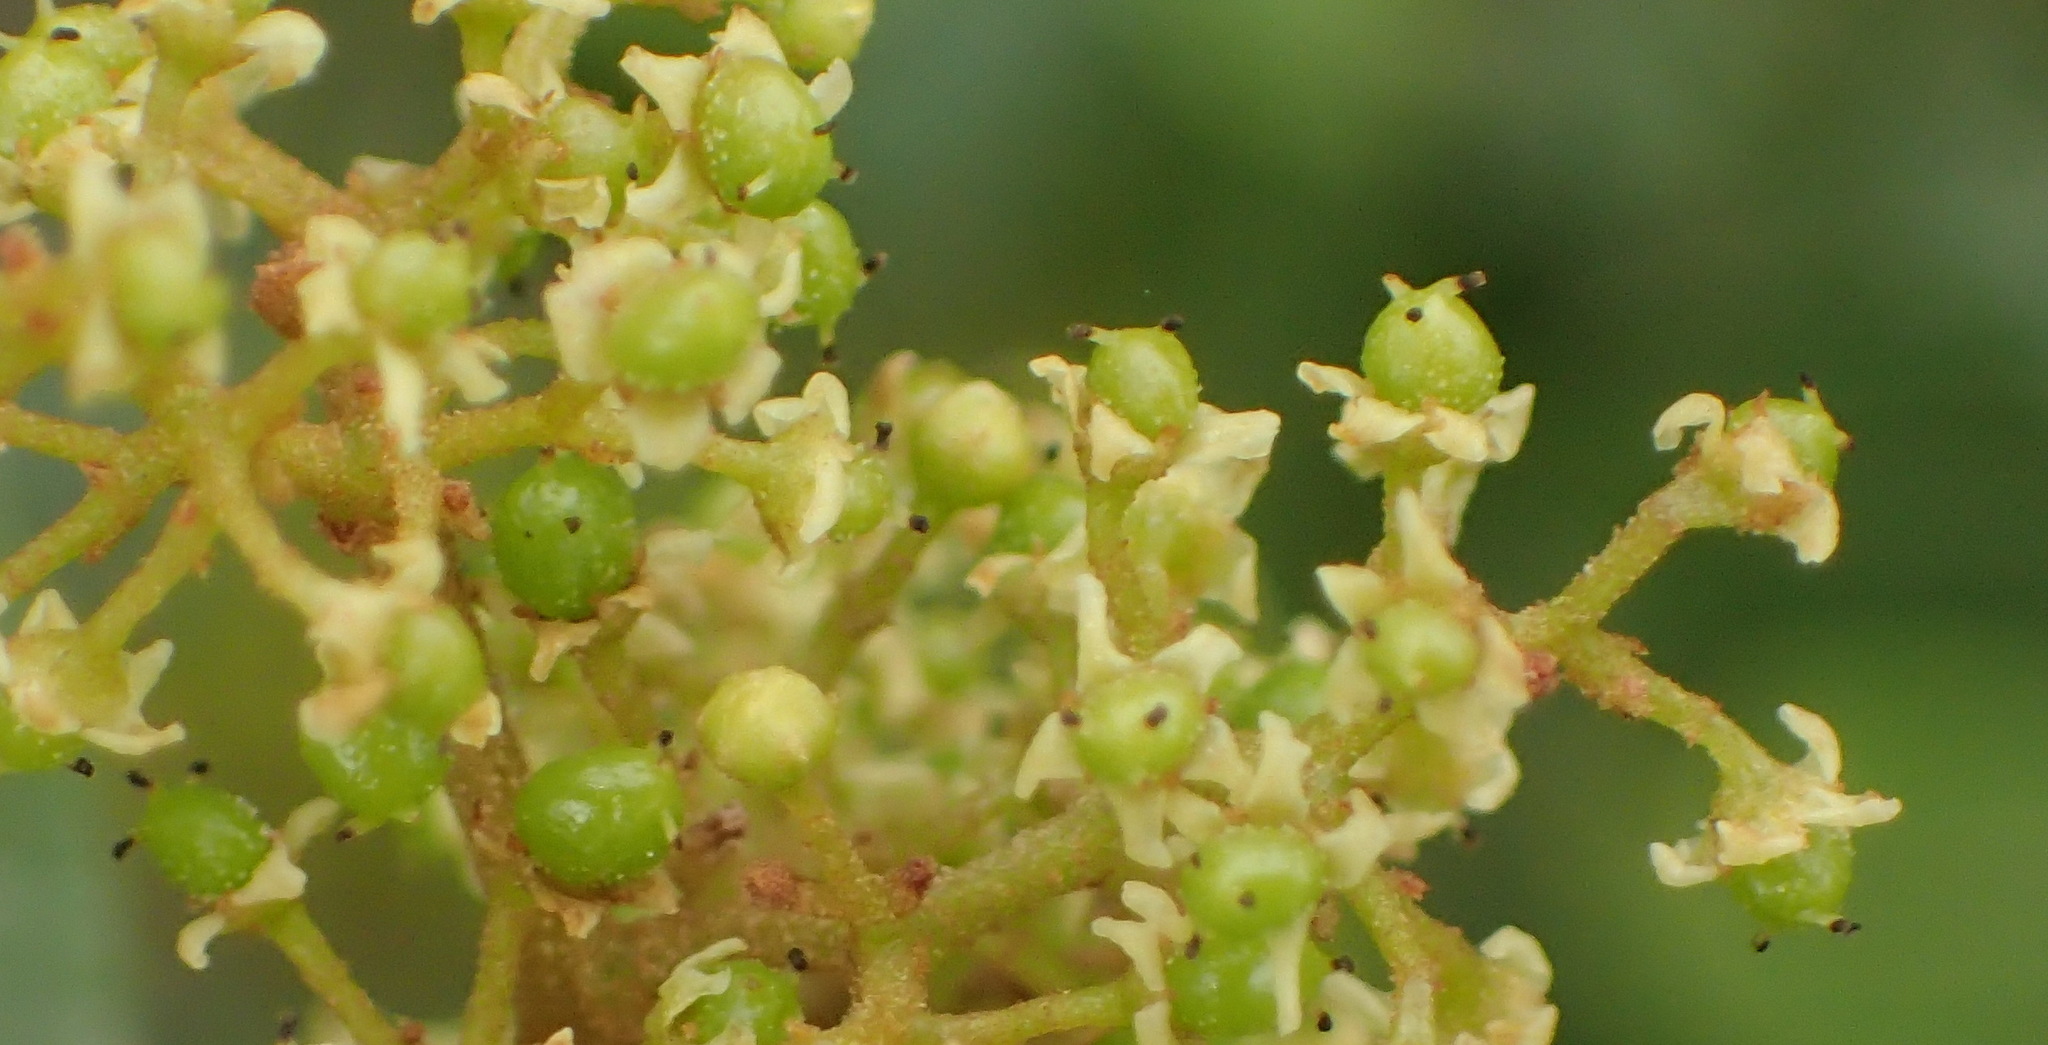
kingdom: Plantae
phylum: Tracheophyta
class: Magnoliopsida
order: Sapindales
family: Anacardiaceae
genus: Searsia
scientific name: Searsia pallens
